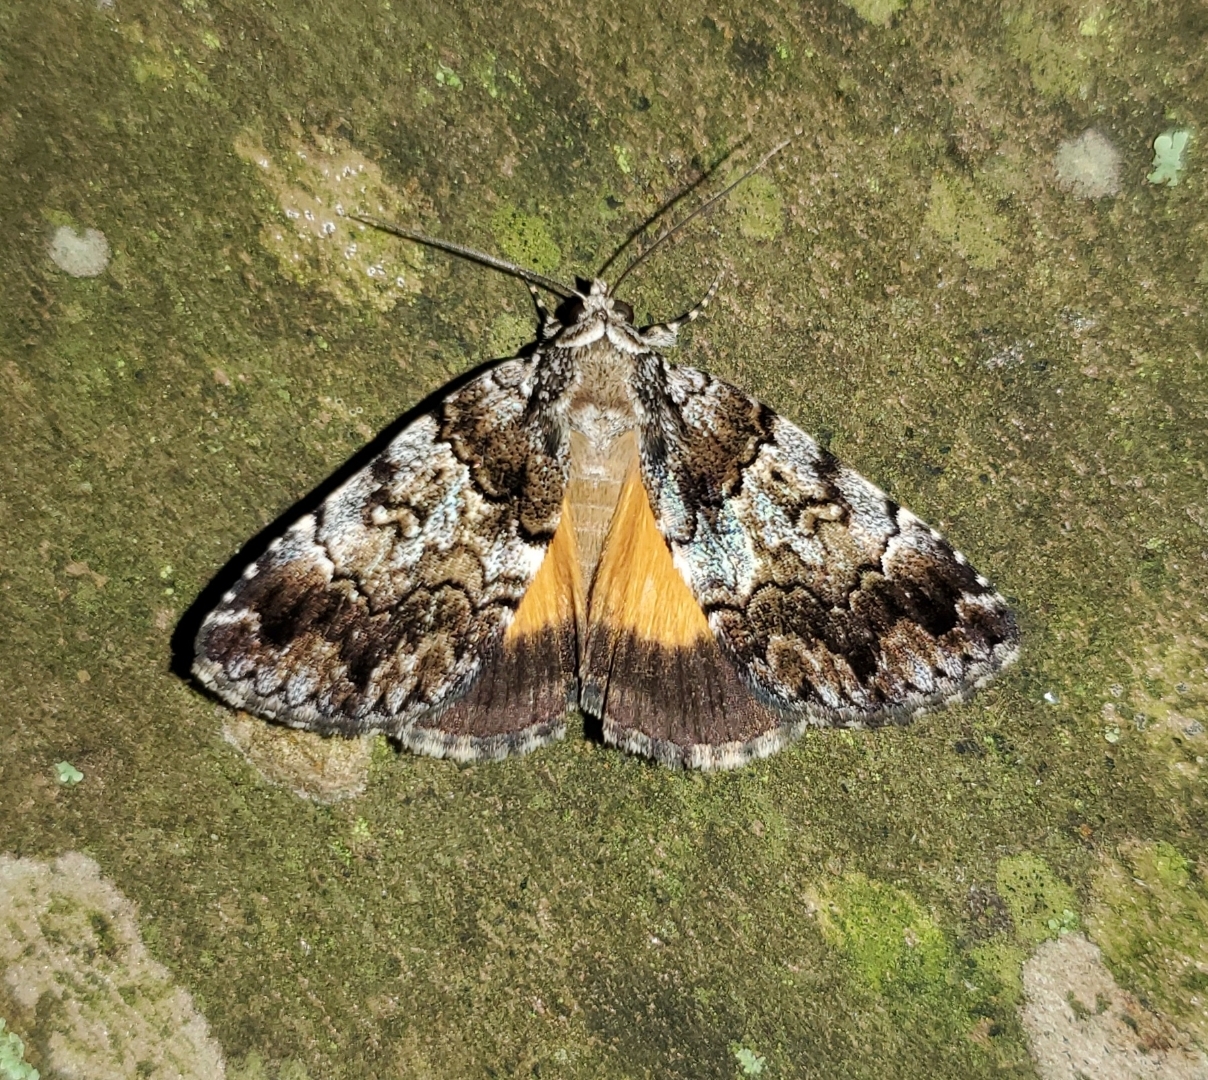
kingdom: Animalia
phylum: Arthropoda
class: Insecta
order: Lepidoptera
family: Erebidae
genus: Allotria
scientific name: Allotria elonympha
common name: False underwing
